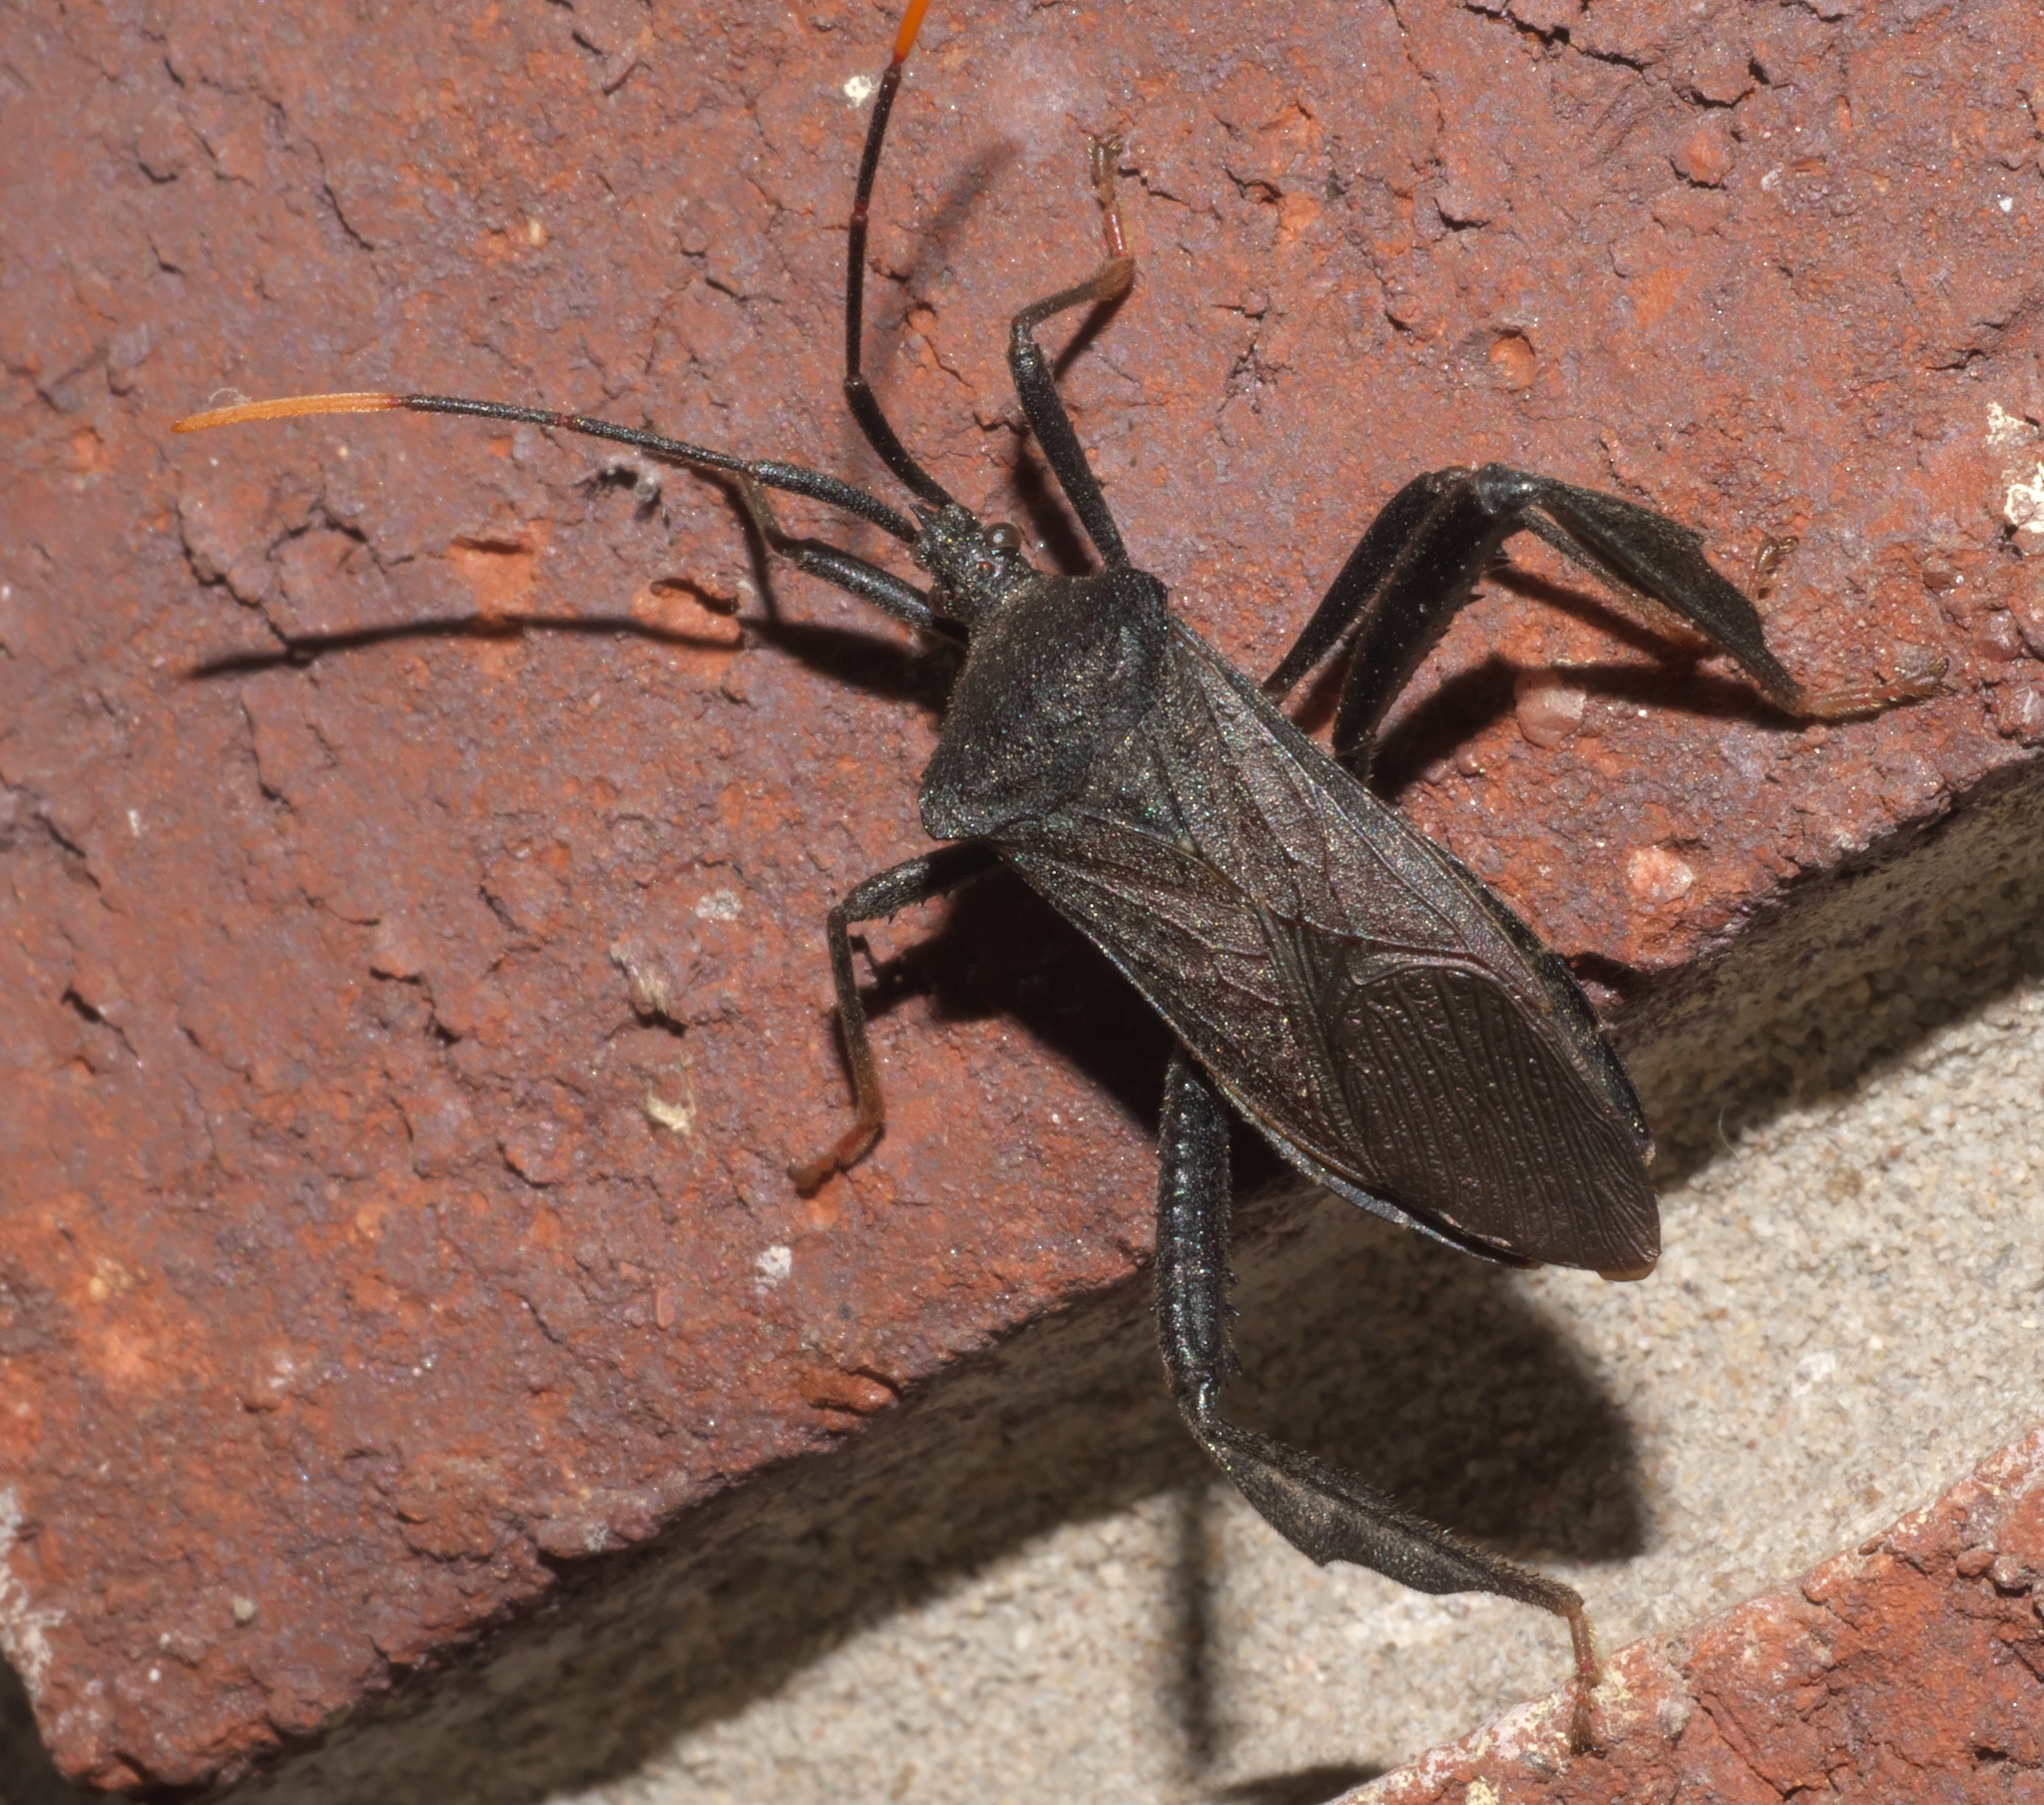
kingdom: Animalia
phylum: Arthropoda
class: Insecta
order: Hemiptera
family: Coreidae
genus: Acanthocephala
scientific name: Acanthocephala terminalis
